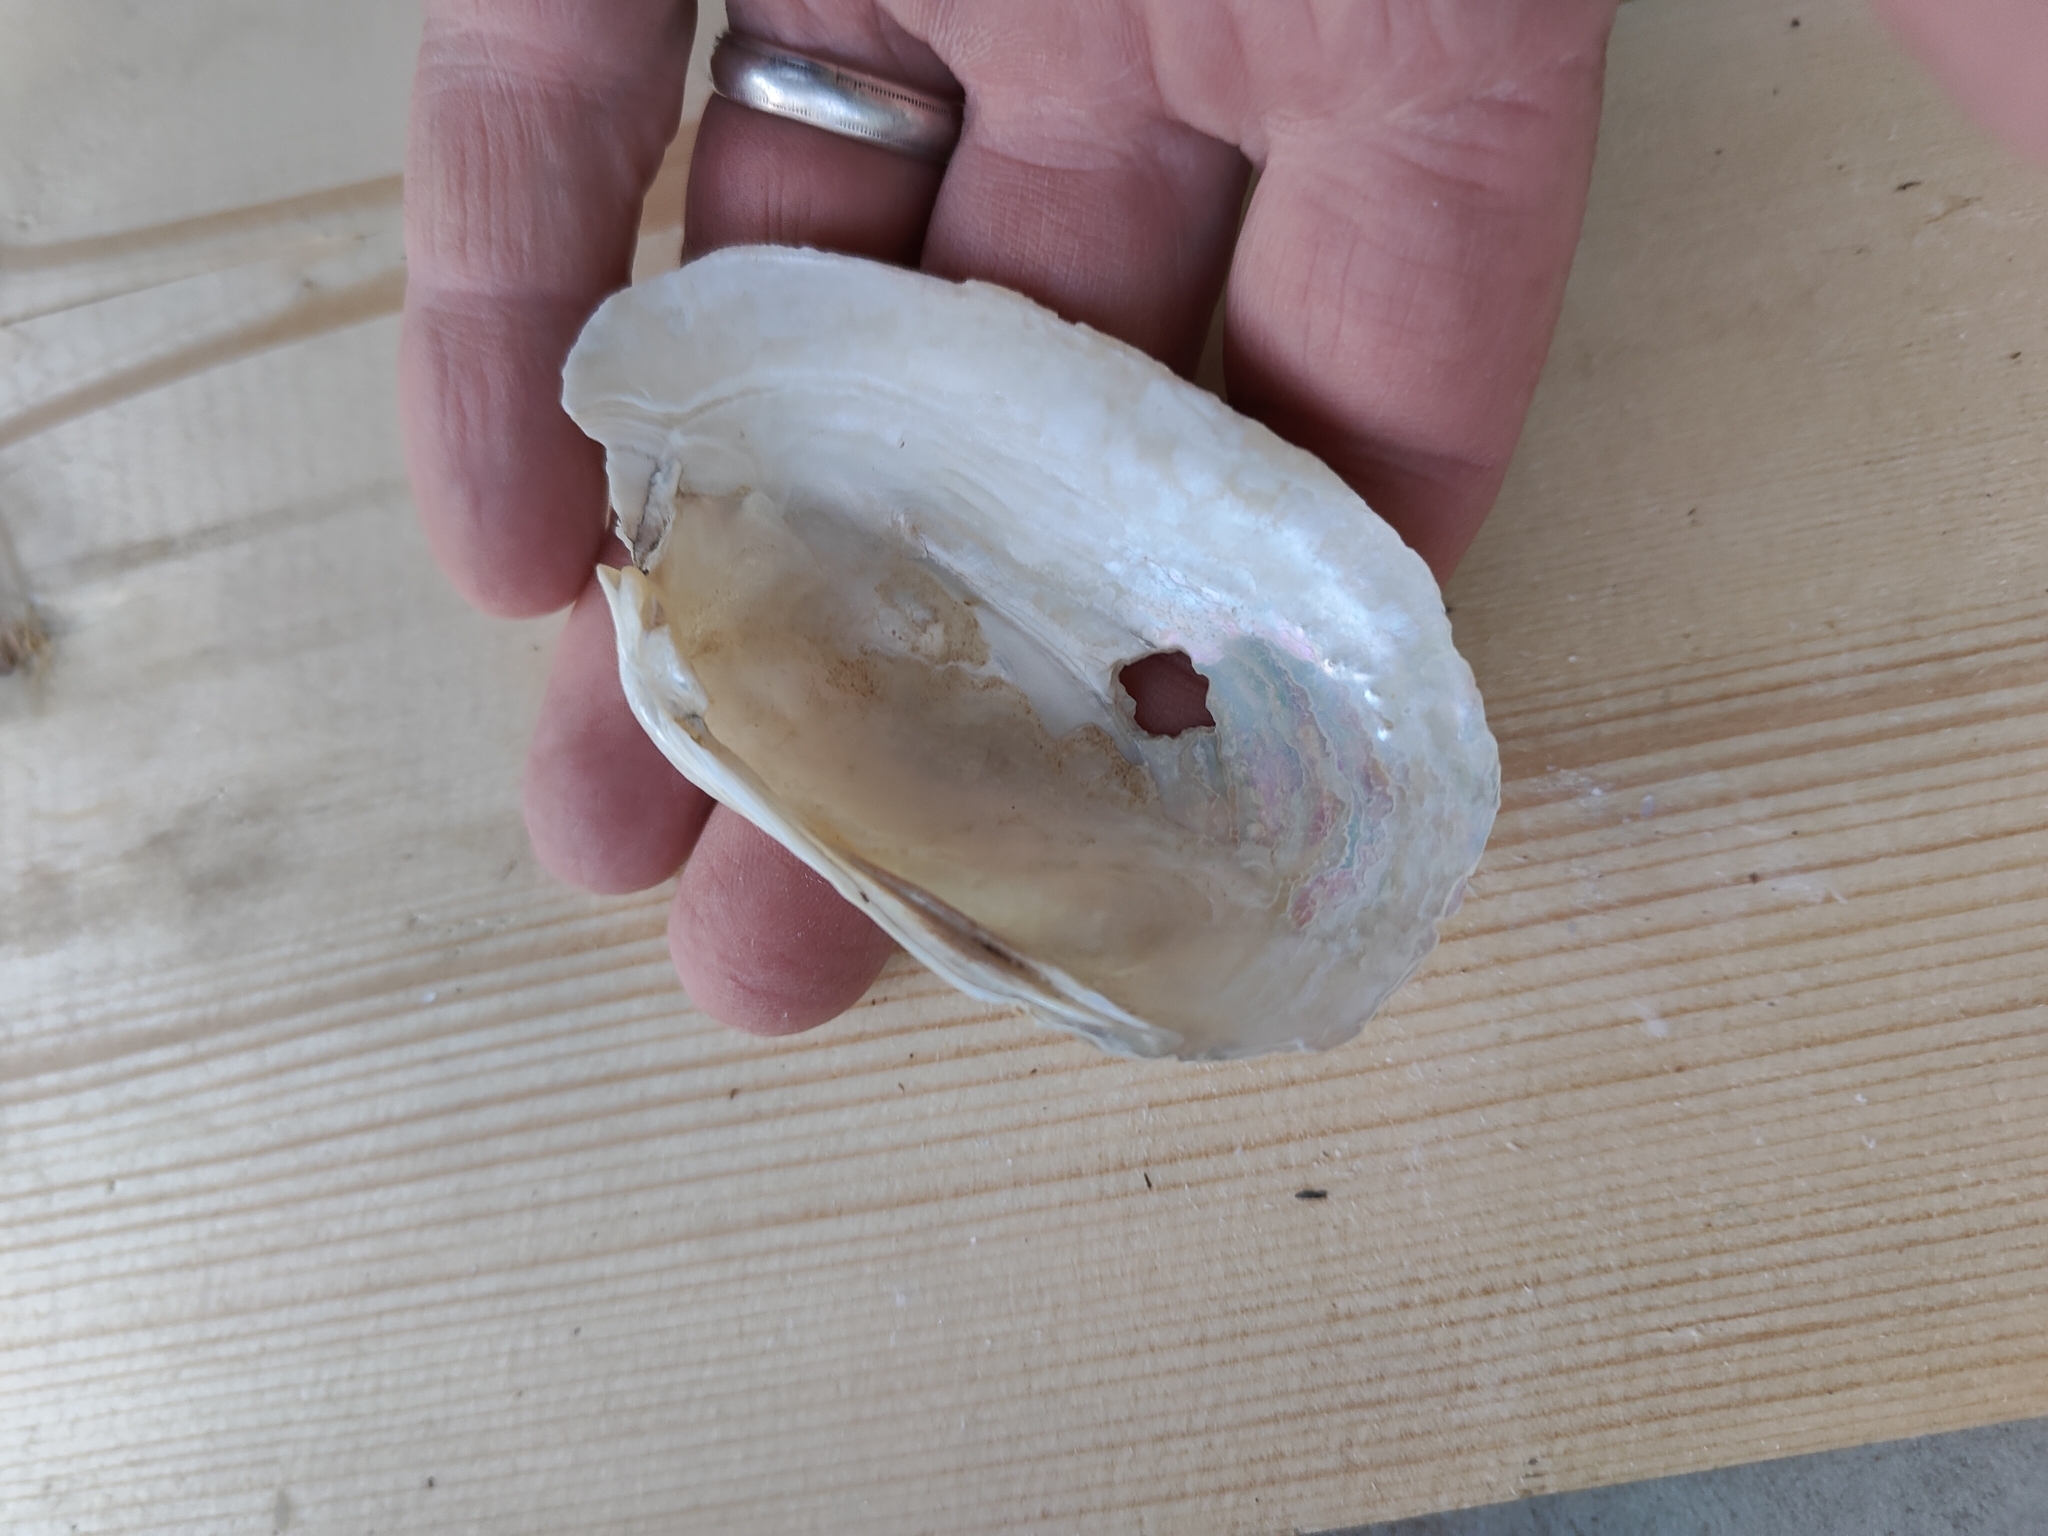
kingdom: Animalia
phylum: Mollusca
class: Bivalvia
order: Unionida
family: Unionidae
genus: Lampsilis
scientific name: Lampsilis siliquoidea
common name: Fatmucket
